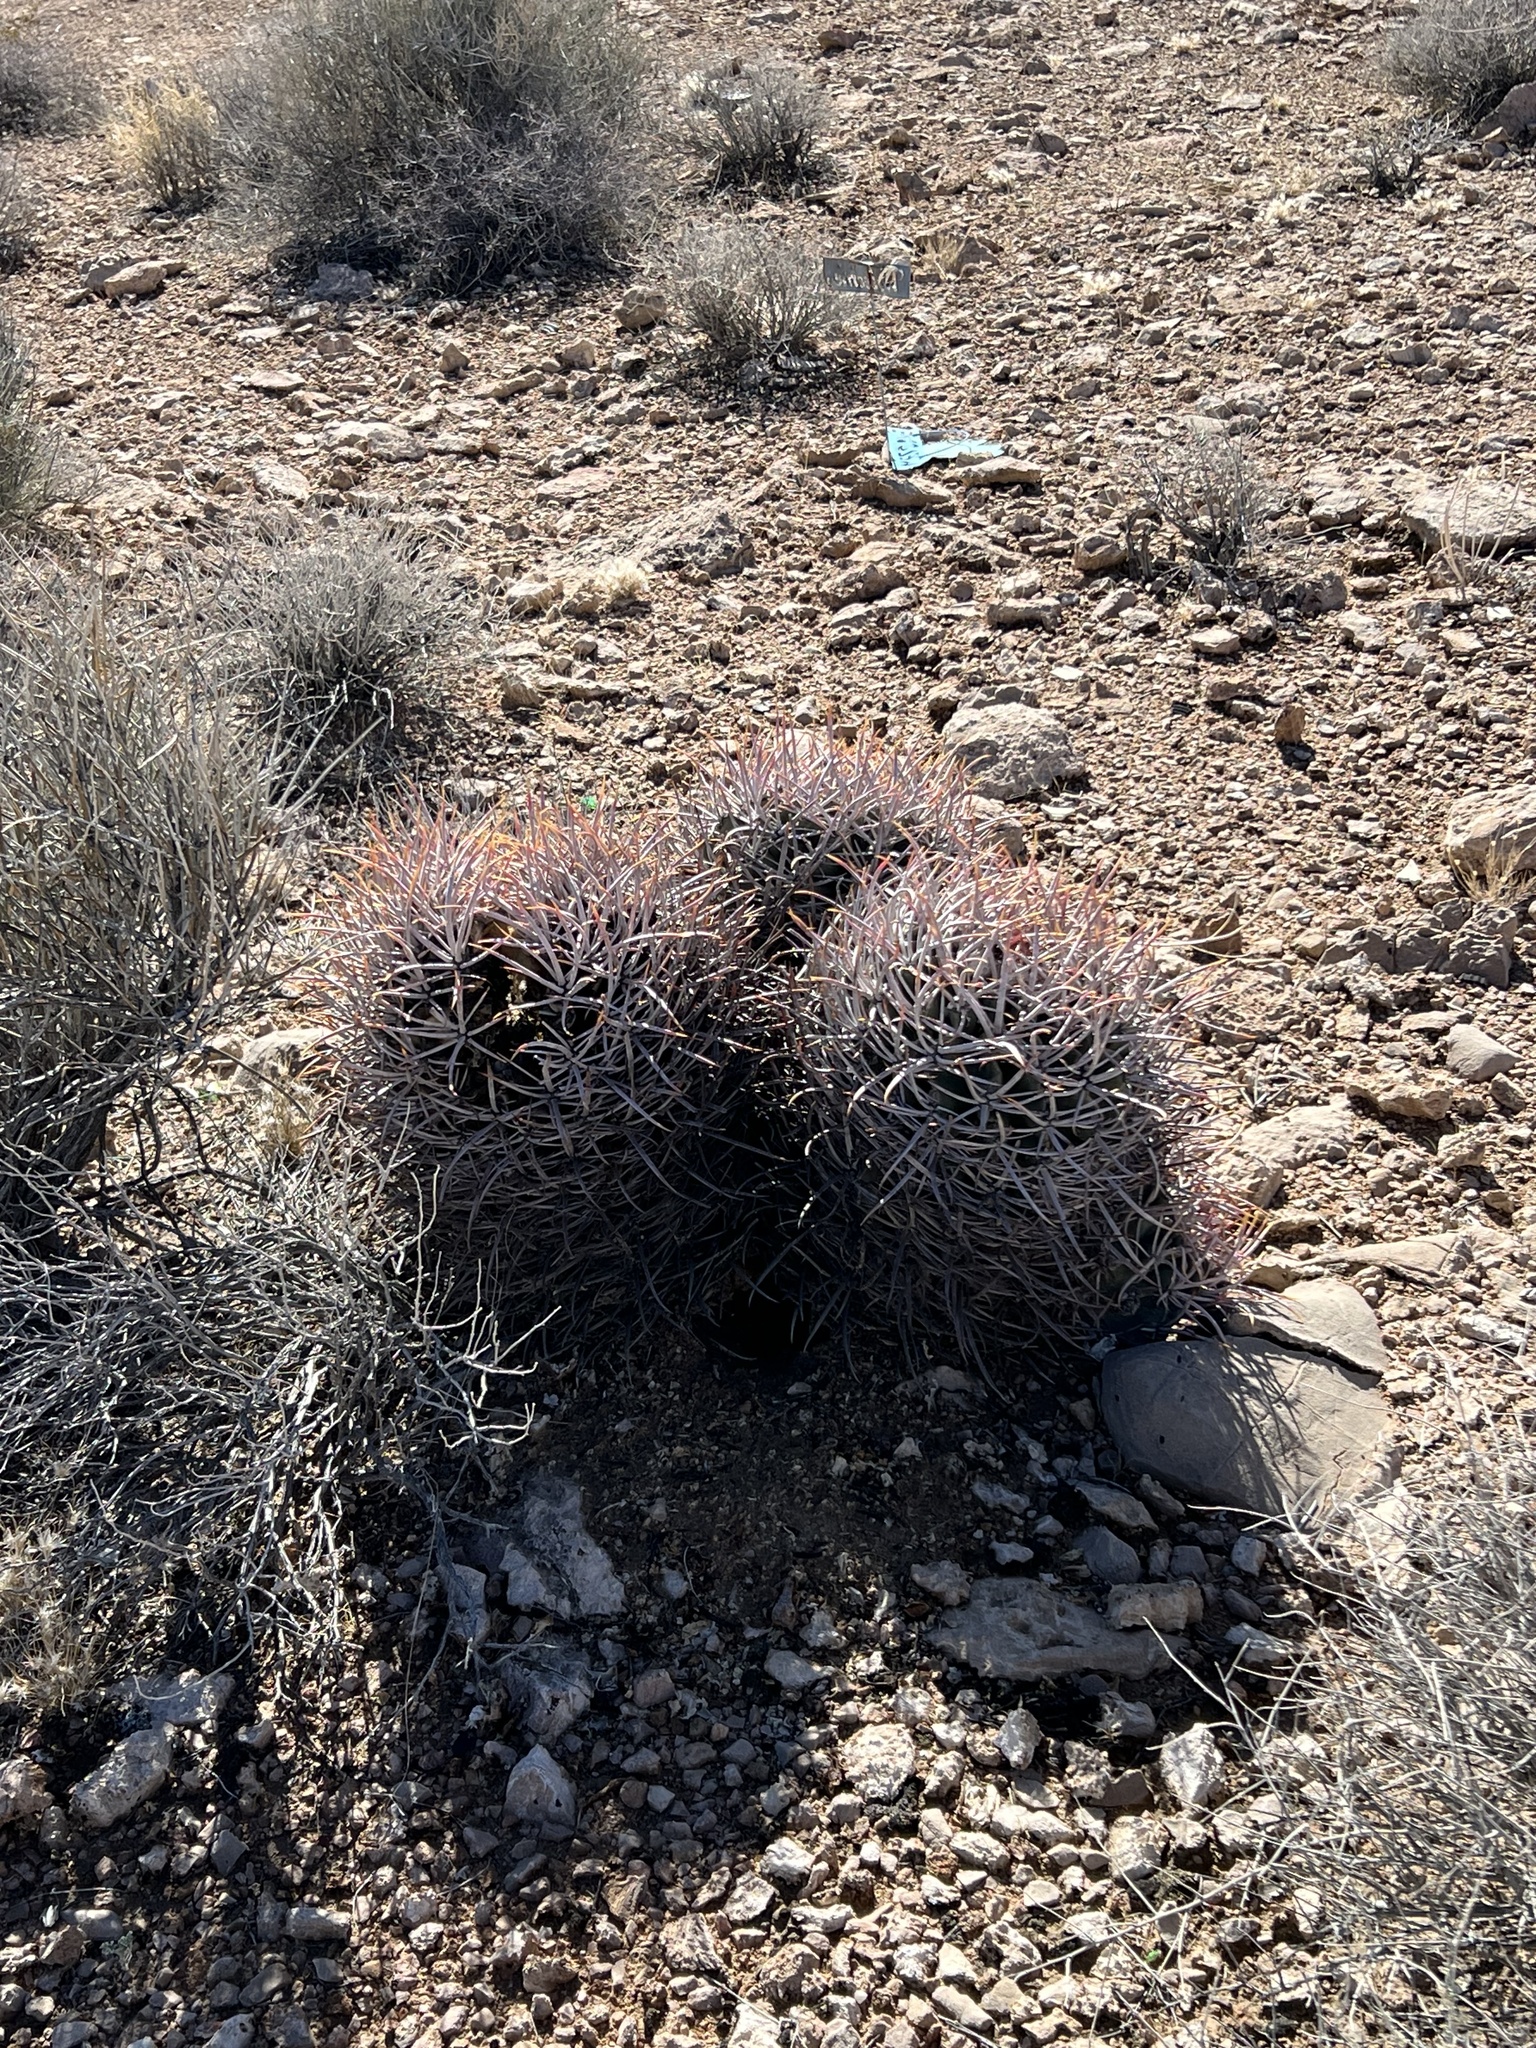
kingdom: Plantae
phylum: Tracheophyta
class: Magnoliopsida
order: Caryophyllales
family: Cactaceae
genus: Echinocactus
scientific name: Echinocactus polycephalus
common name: Cottontop cactus
